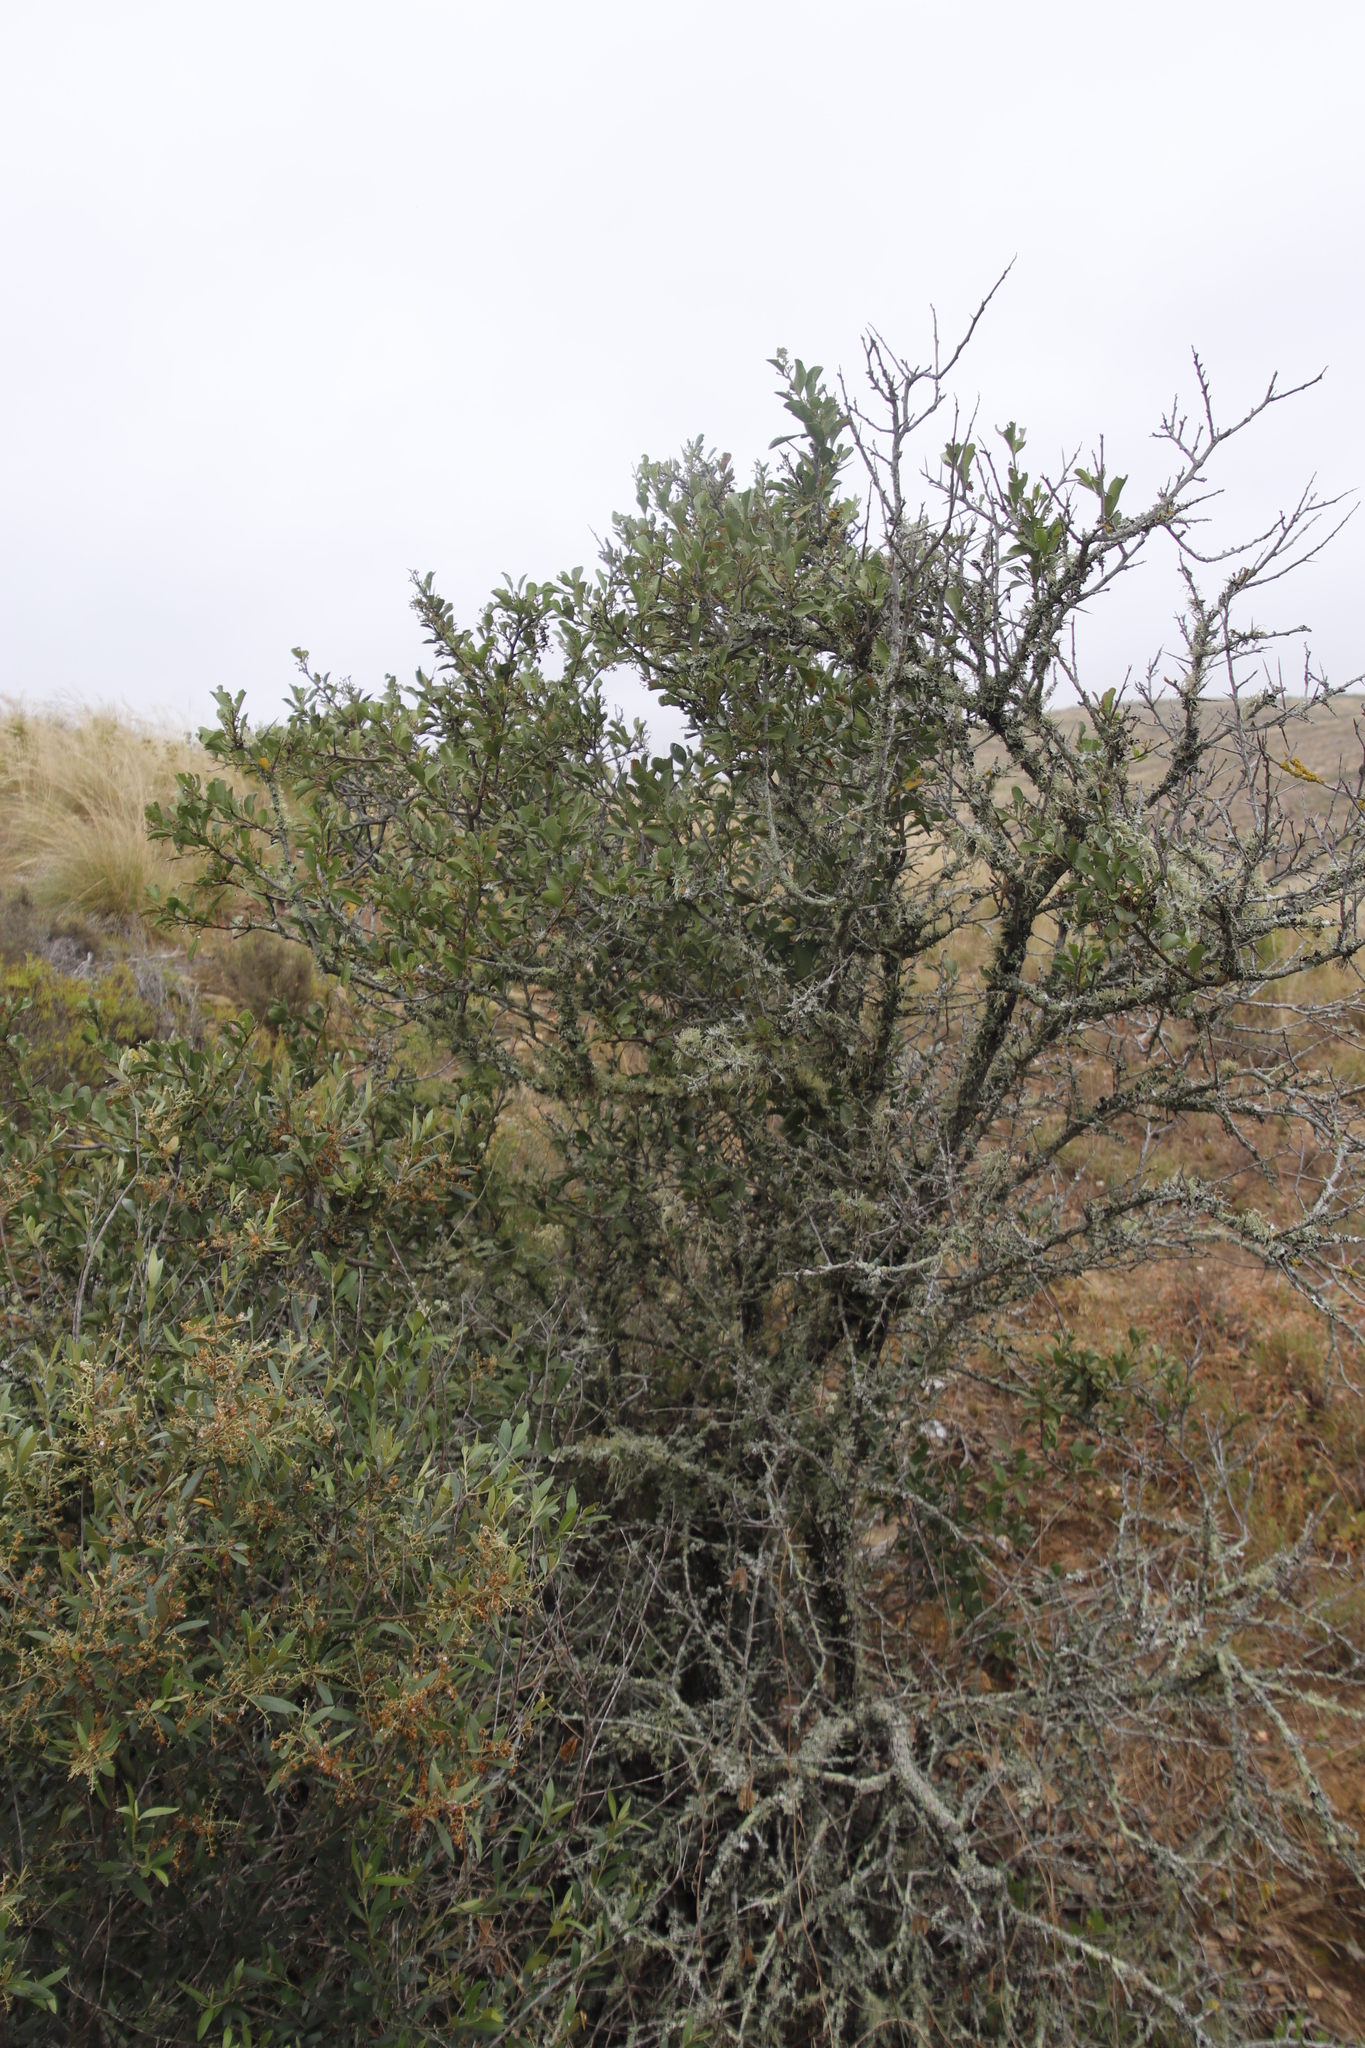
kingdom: Plantae
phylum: Tracheophyta
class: Magnoliopsida
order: Celastrales
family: Celastraceae
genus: Gymnosporia
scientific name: Gymnosporia buxifolia
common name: Common spike-thorn
